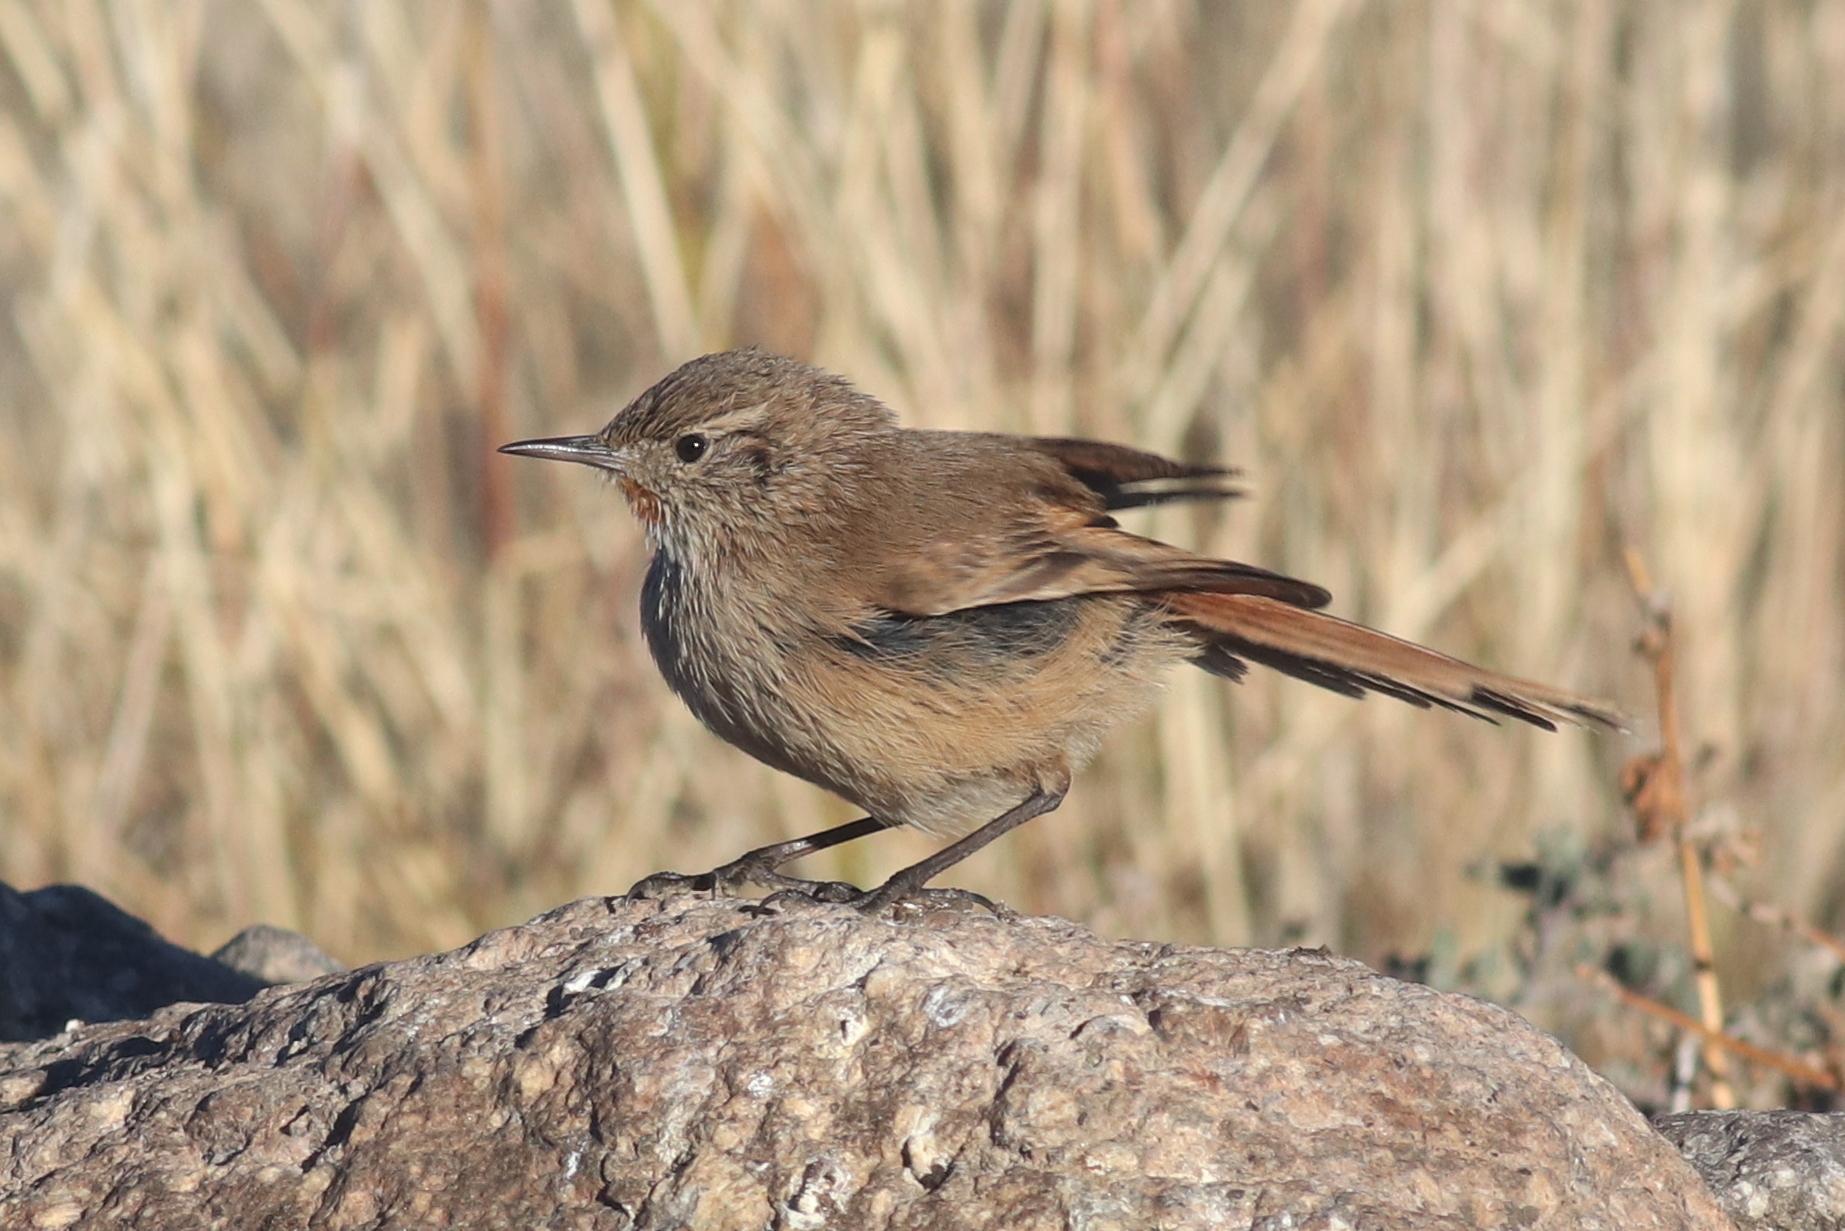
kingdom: Animalia
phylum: Chordata
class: Aves
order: Passeriformes
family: Furnariidae
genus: Asthenes
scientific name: Asthenes modesta
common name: Cordilleran canastero
